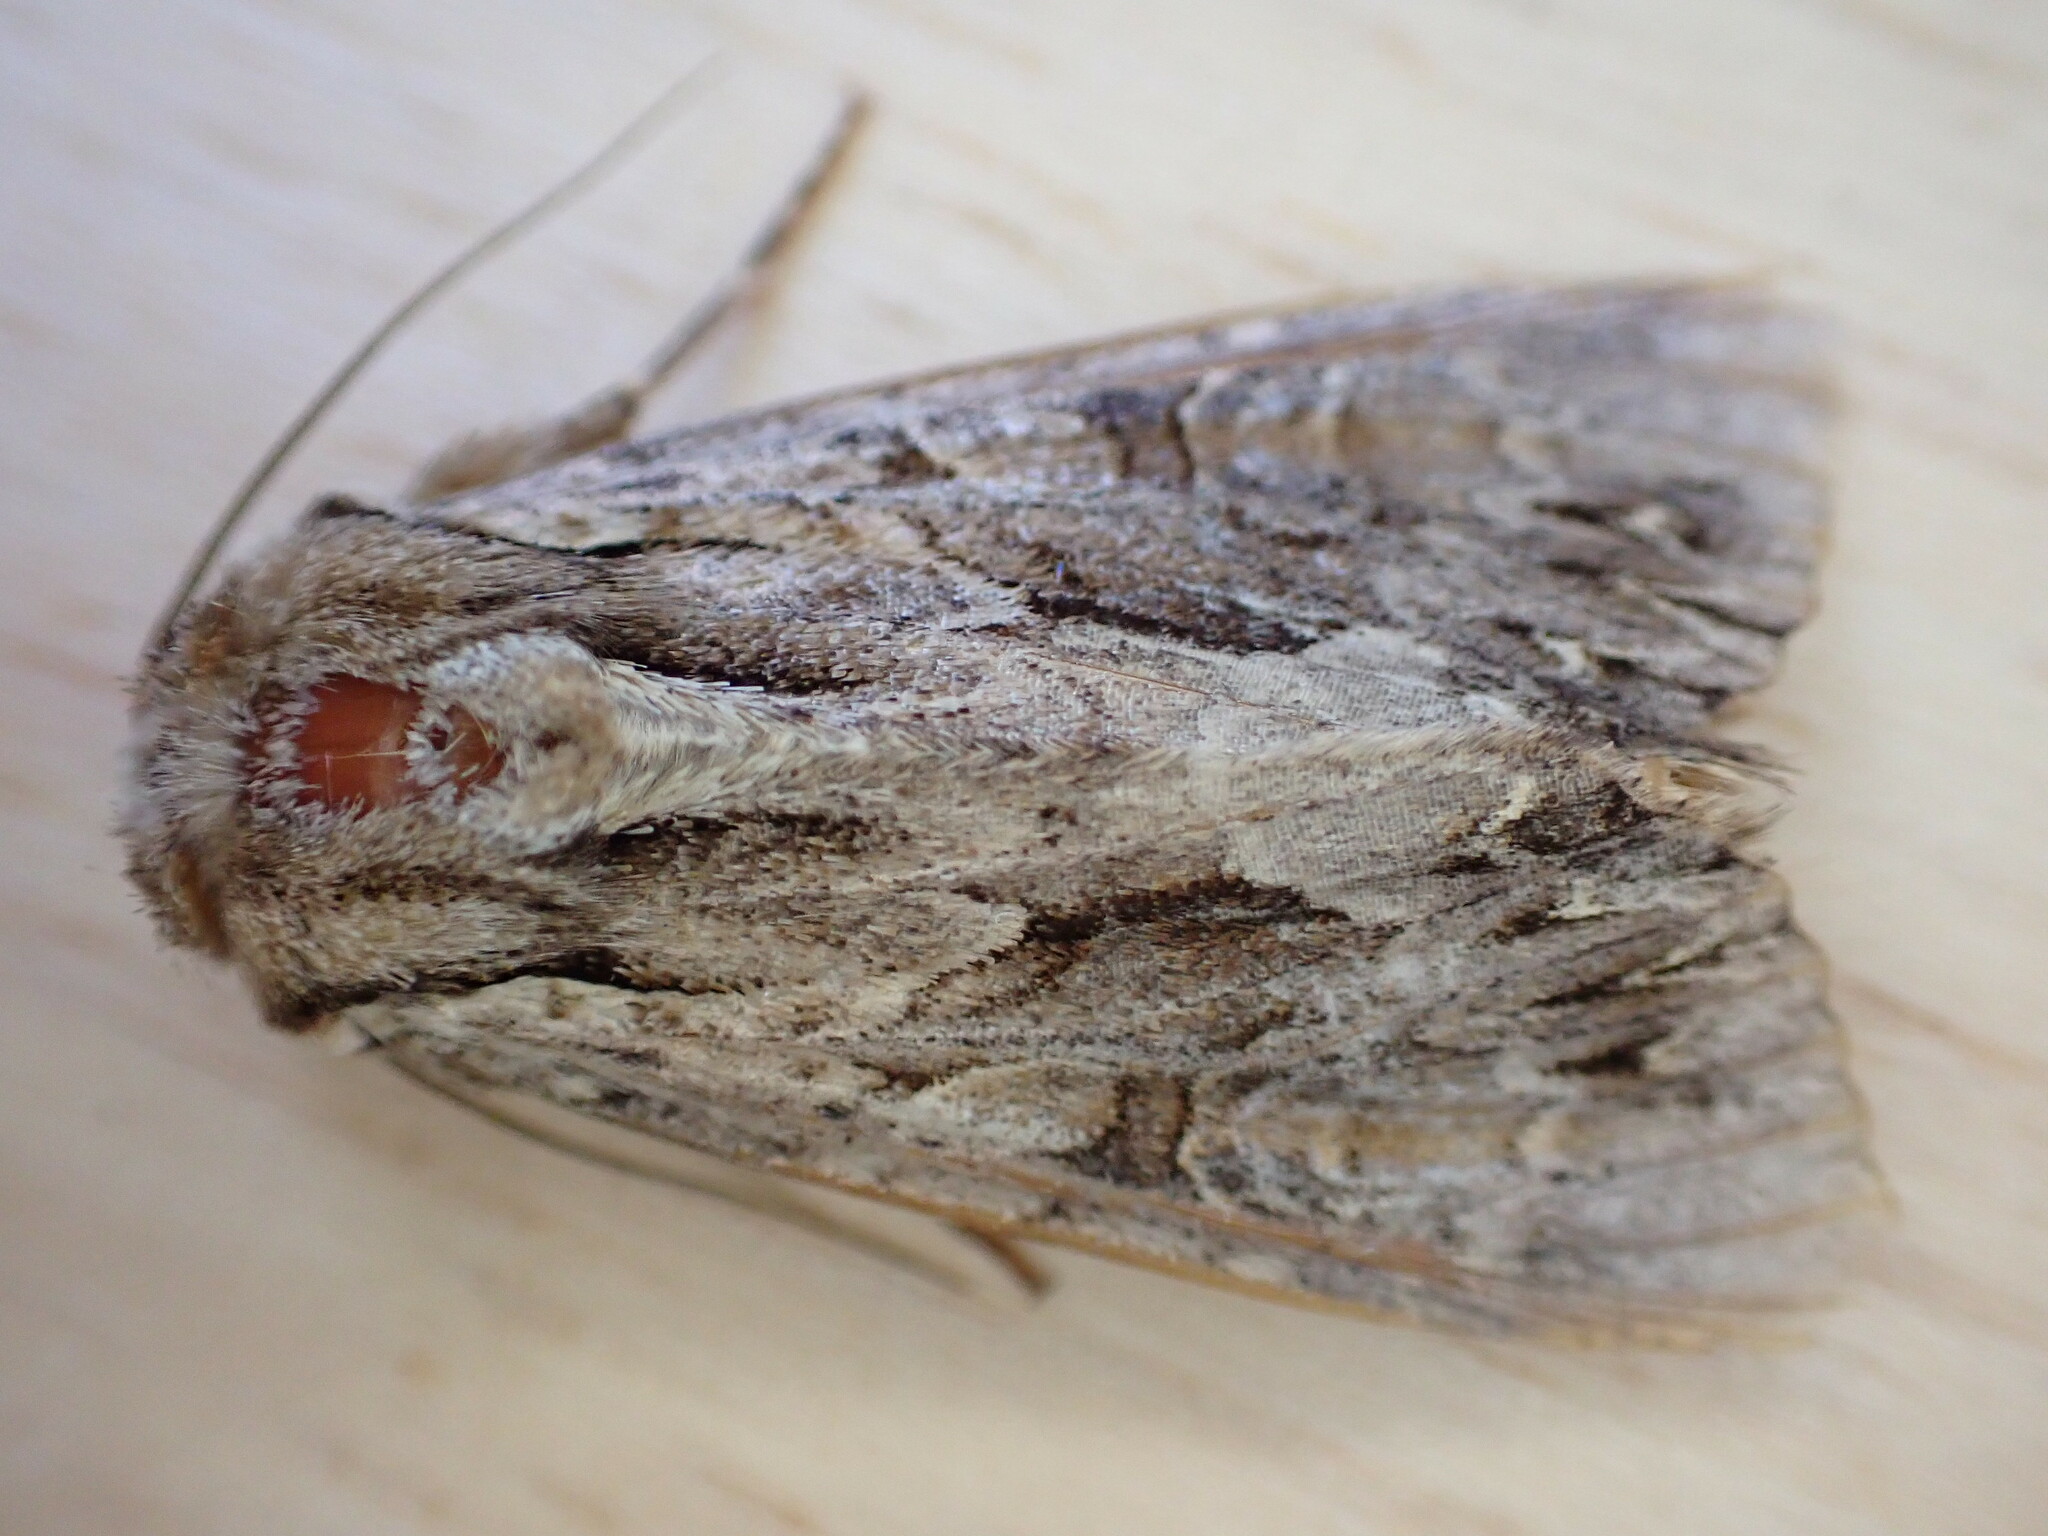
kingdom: Animalia
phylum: Arthropoda
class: Insecta
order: Lepidoptera
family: Noctuidae
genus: Apamea
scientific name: Apamea monoglypha
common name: Dark arches
